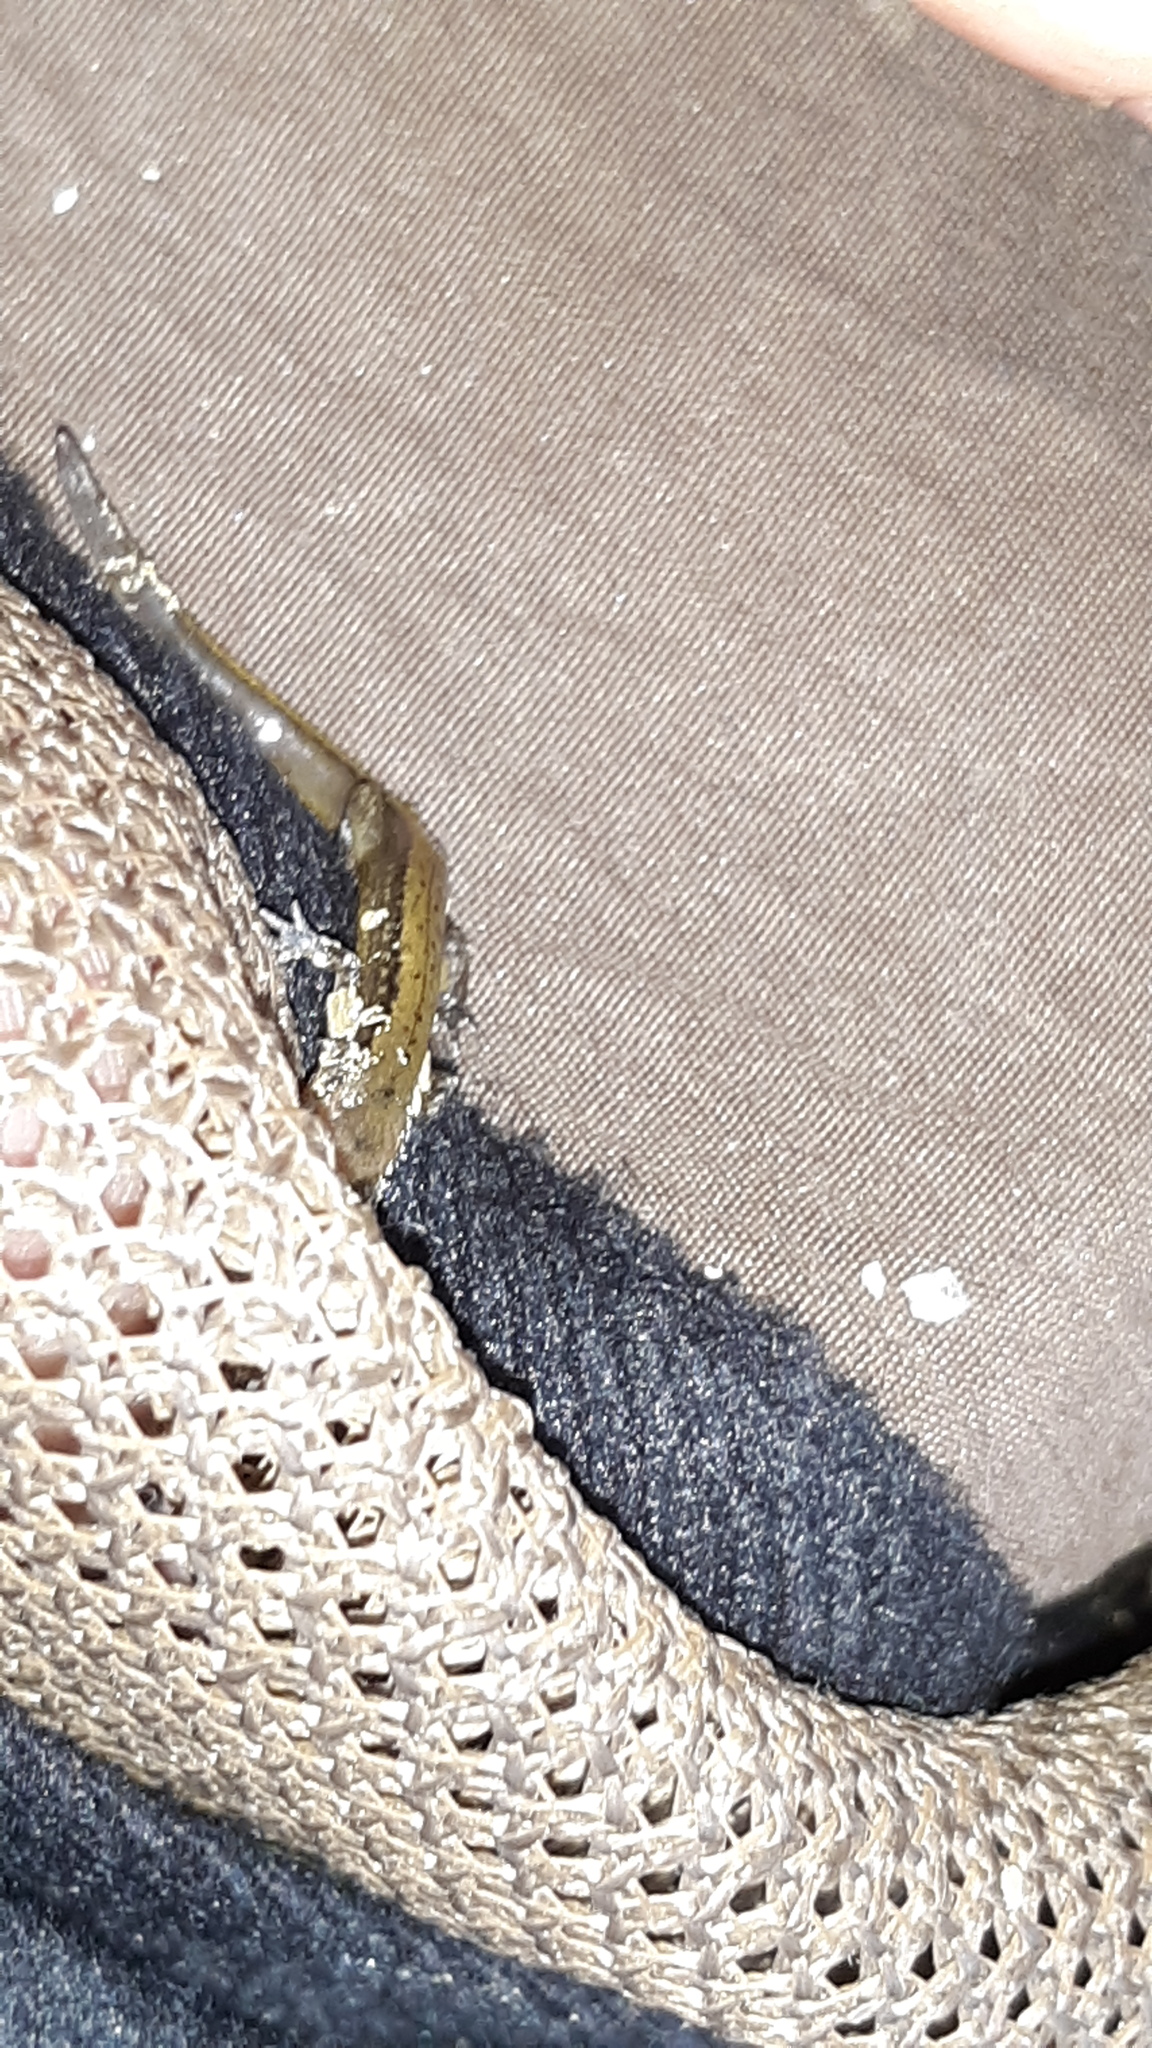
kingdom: Animalia
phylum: Chordata
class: Amphibia
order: Caudata
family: Plethodontidae
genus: Eurycea
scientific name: Eurycea cirrigera
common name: Southern two-lined salamander
